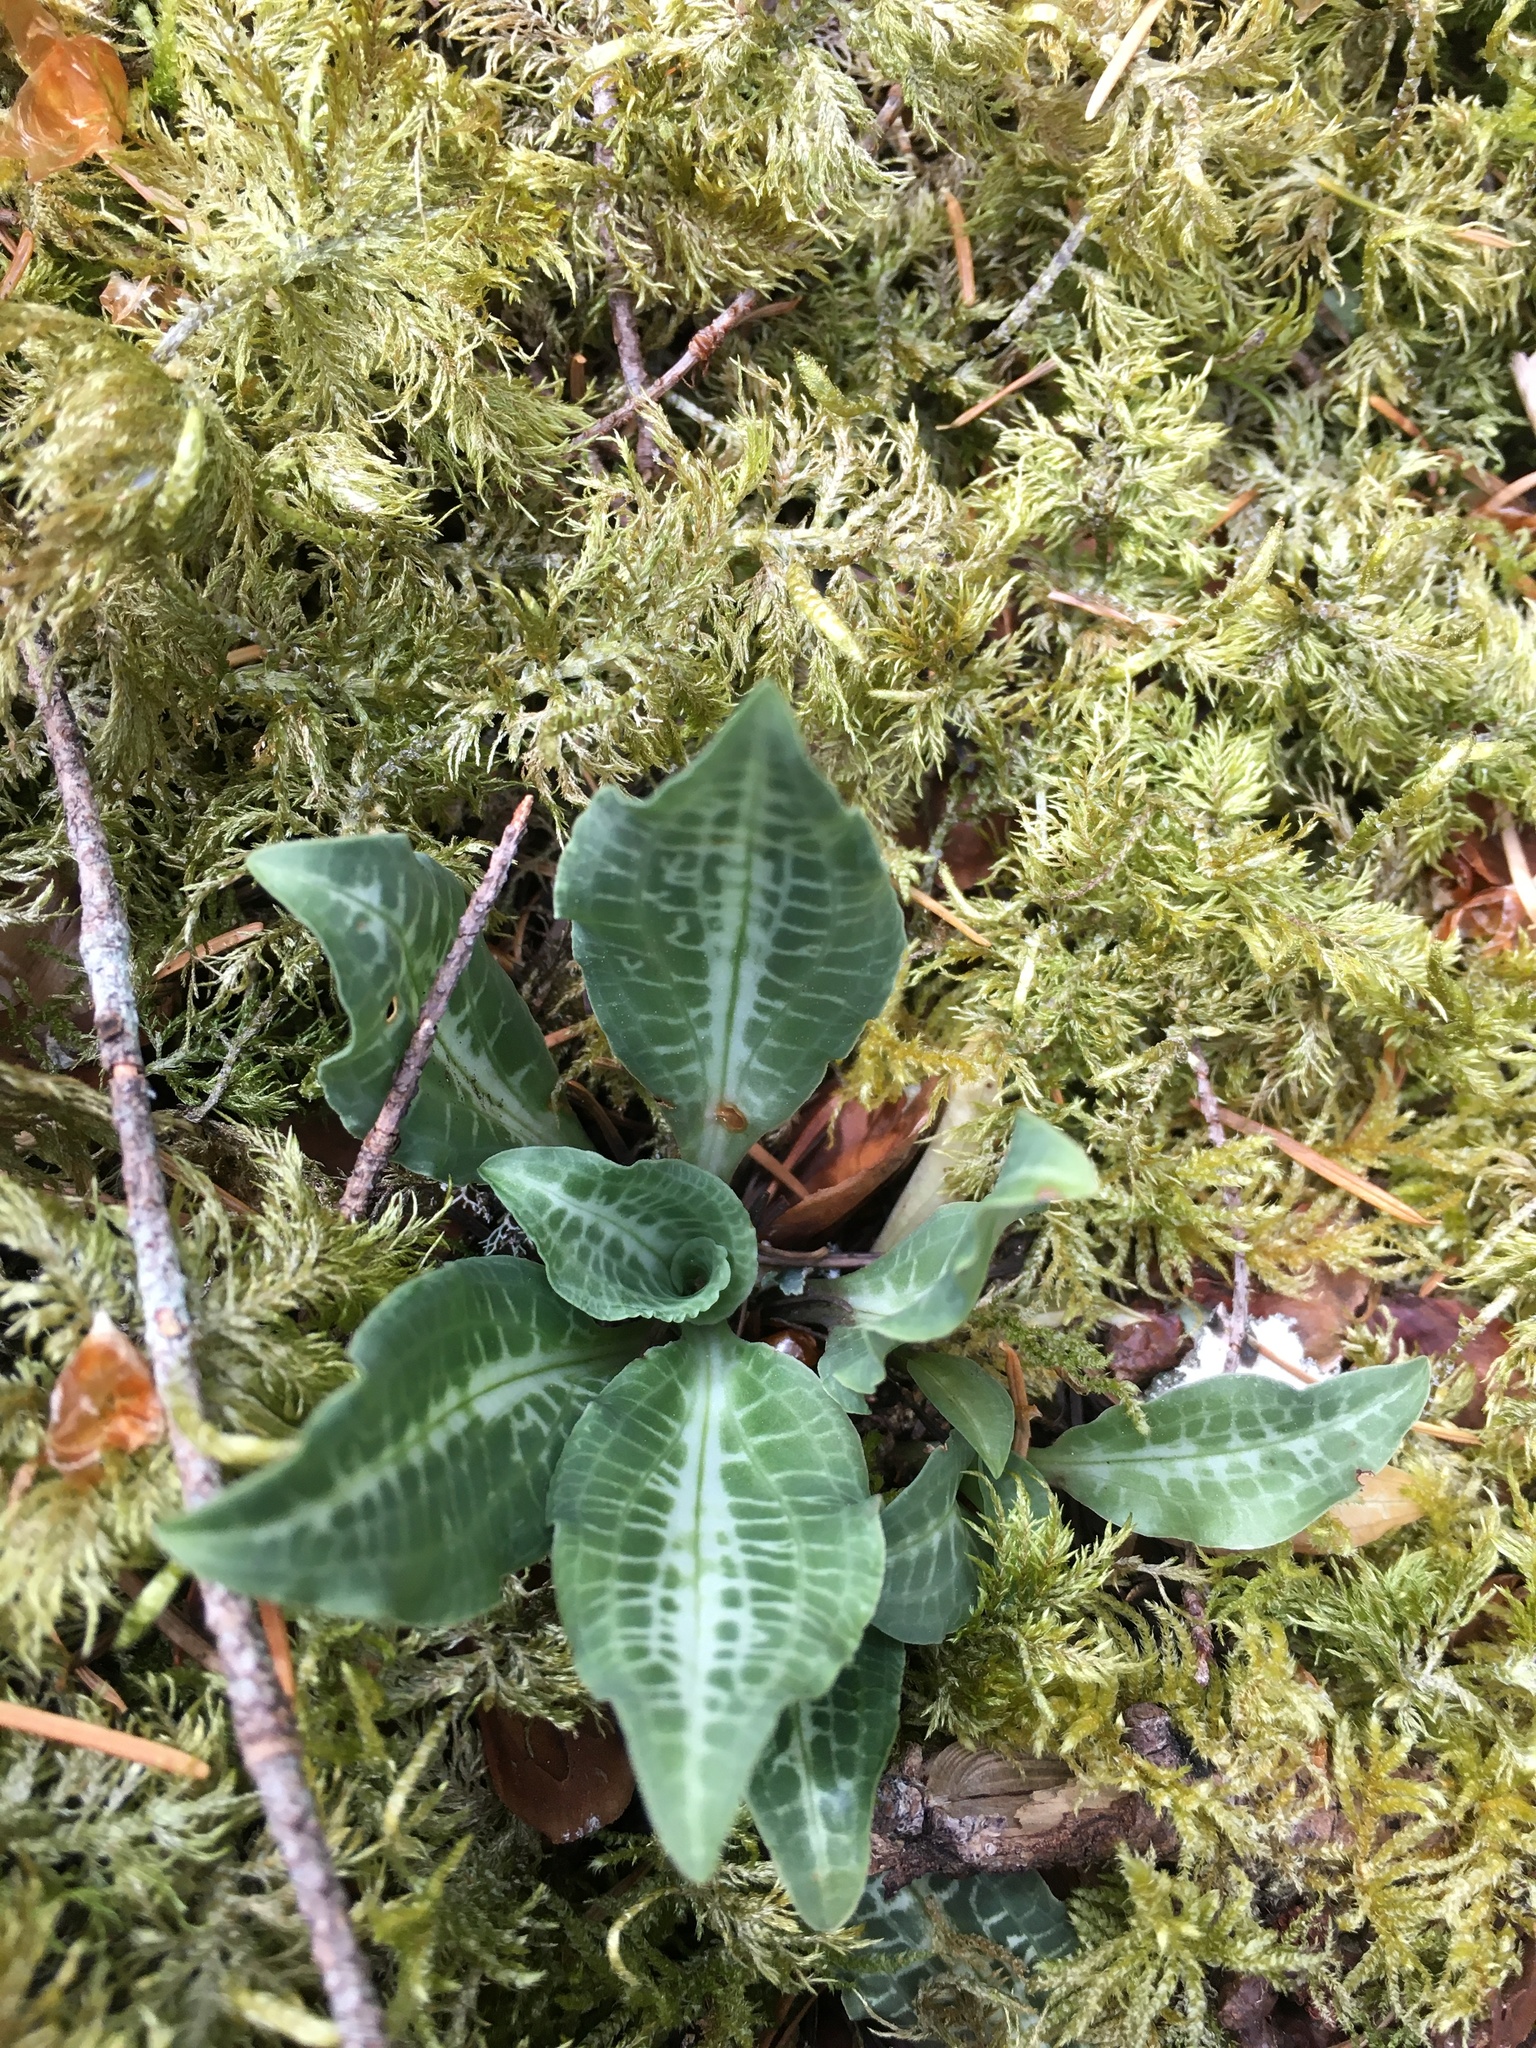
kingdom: Plantae
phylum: Tracheophyta
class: Liliopsida
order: Asparagales
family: Orchidaceae
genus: Goodyera
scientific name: Goodyera oblongifolia
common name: Giant rattlesnake-plantain
